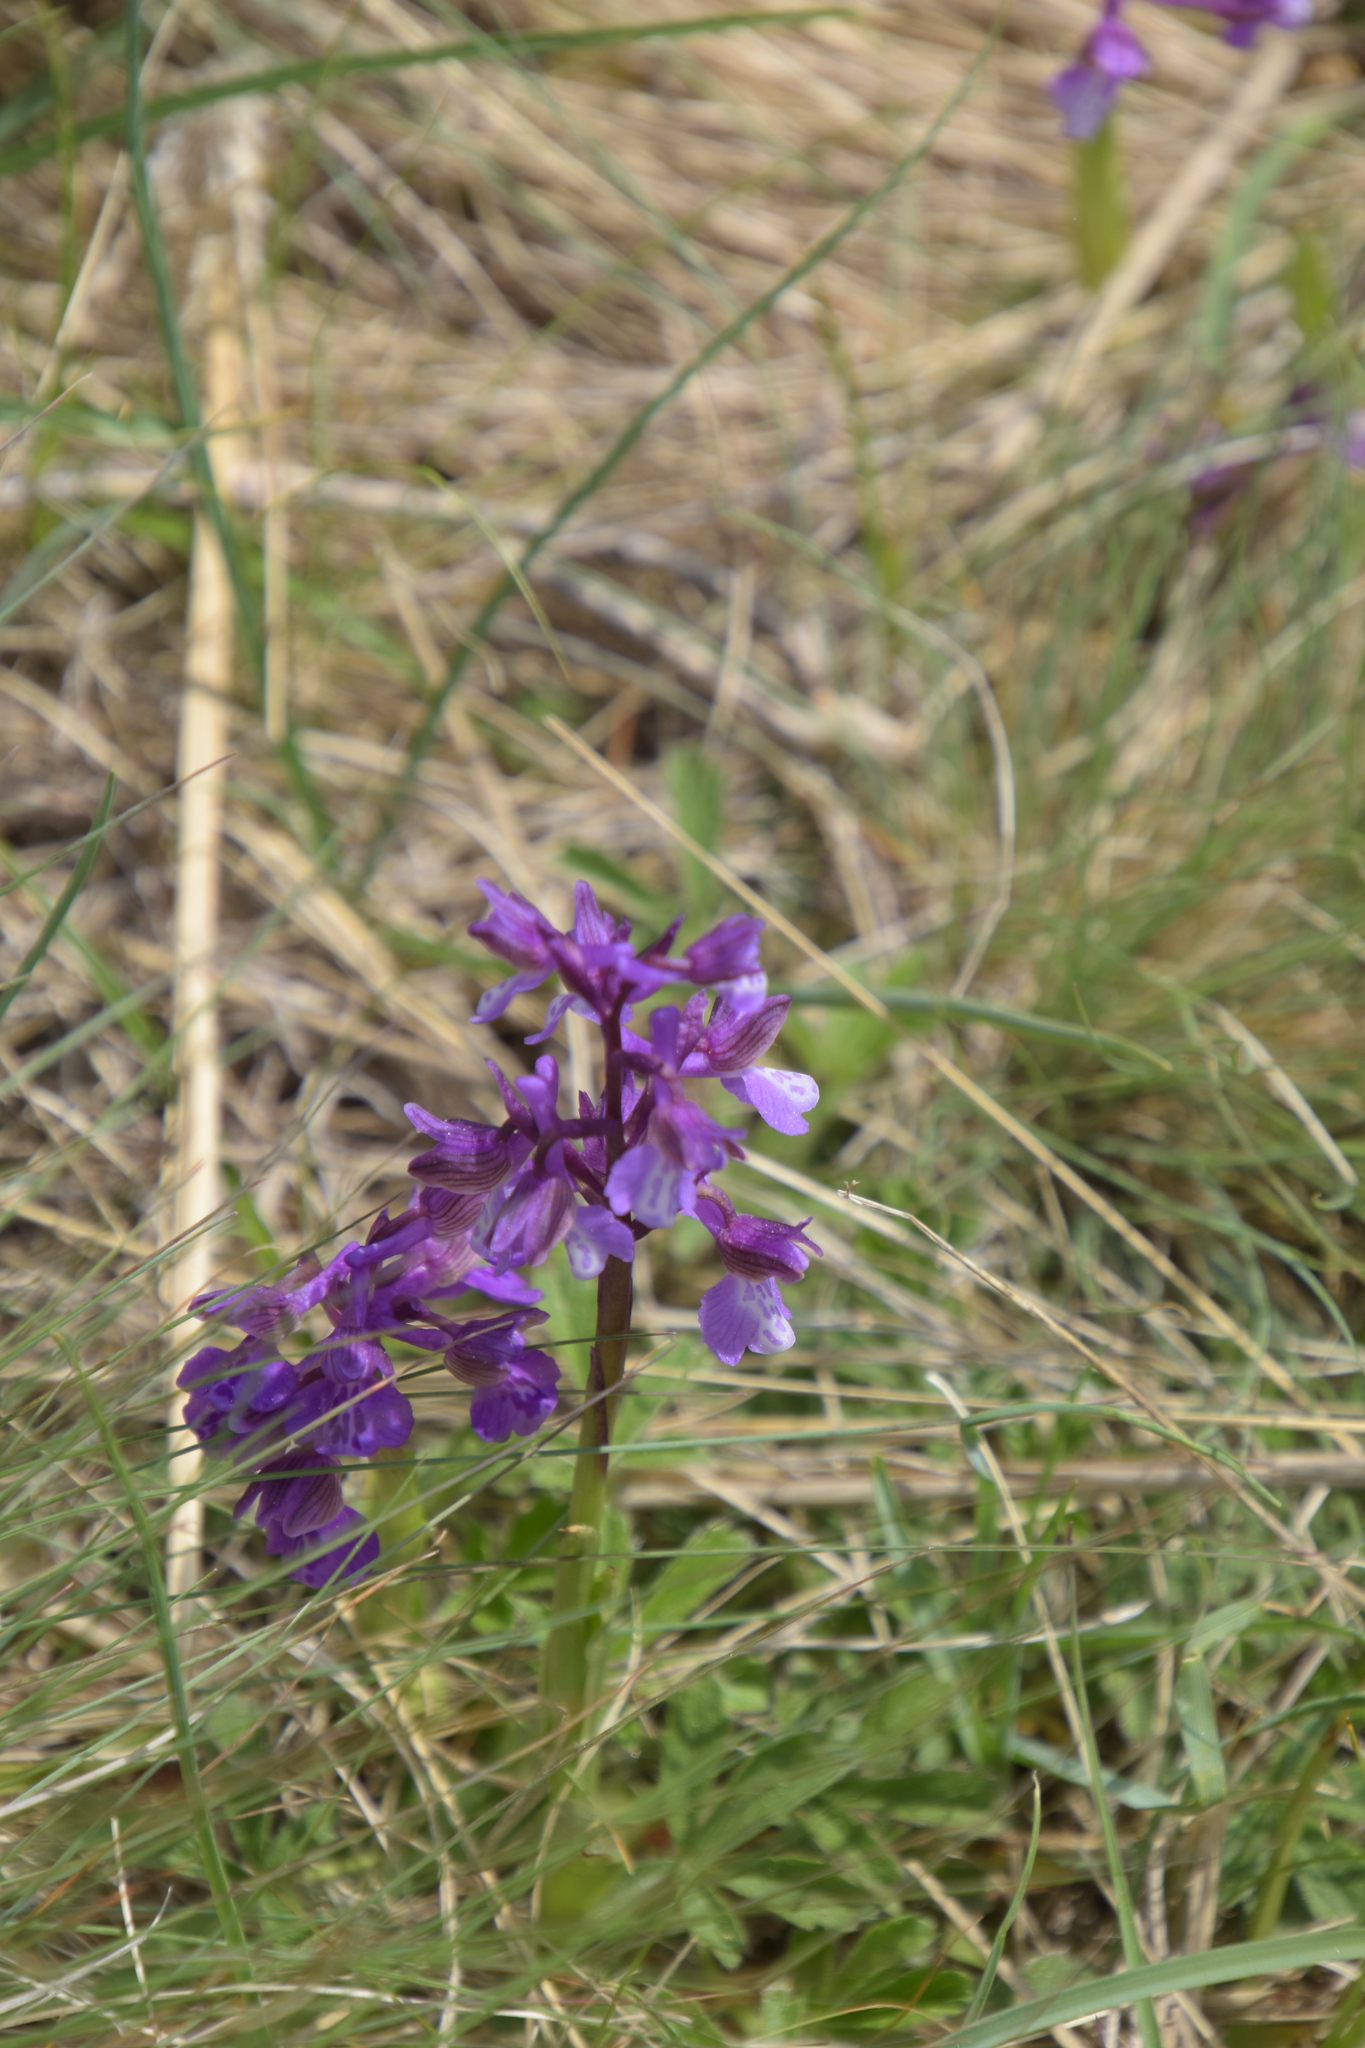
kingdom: Plantae
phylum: Tracheophyta
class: Liliopsida
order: Asparagales
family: Orchidaceae
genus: Anacamptis
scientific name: Anacamptis morio
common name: Green-winged orchid
